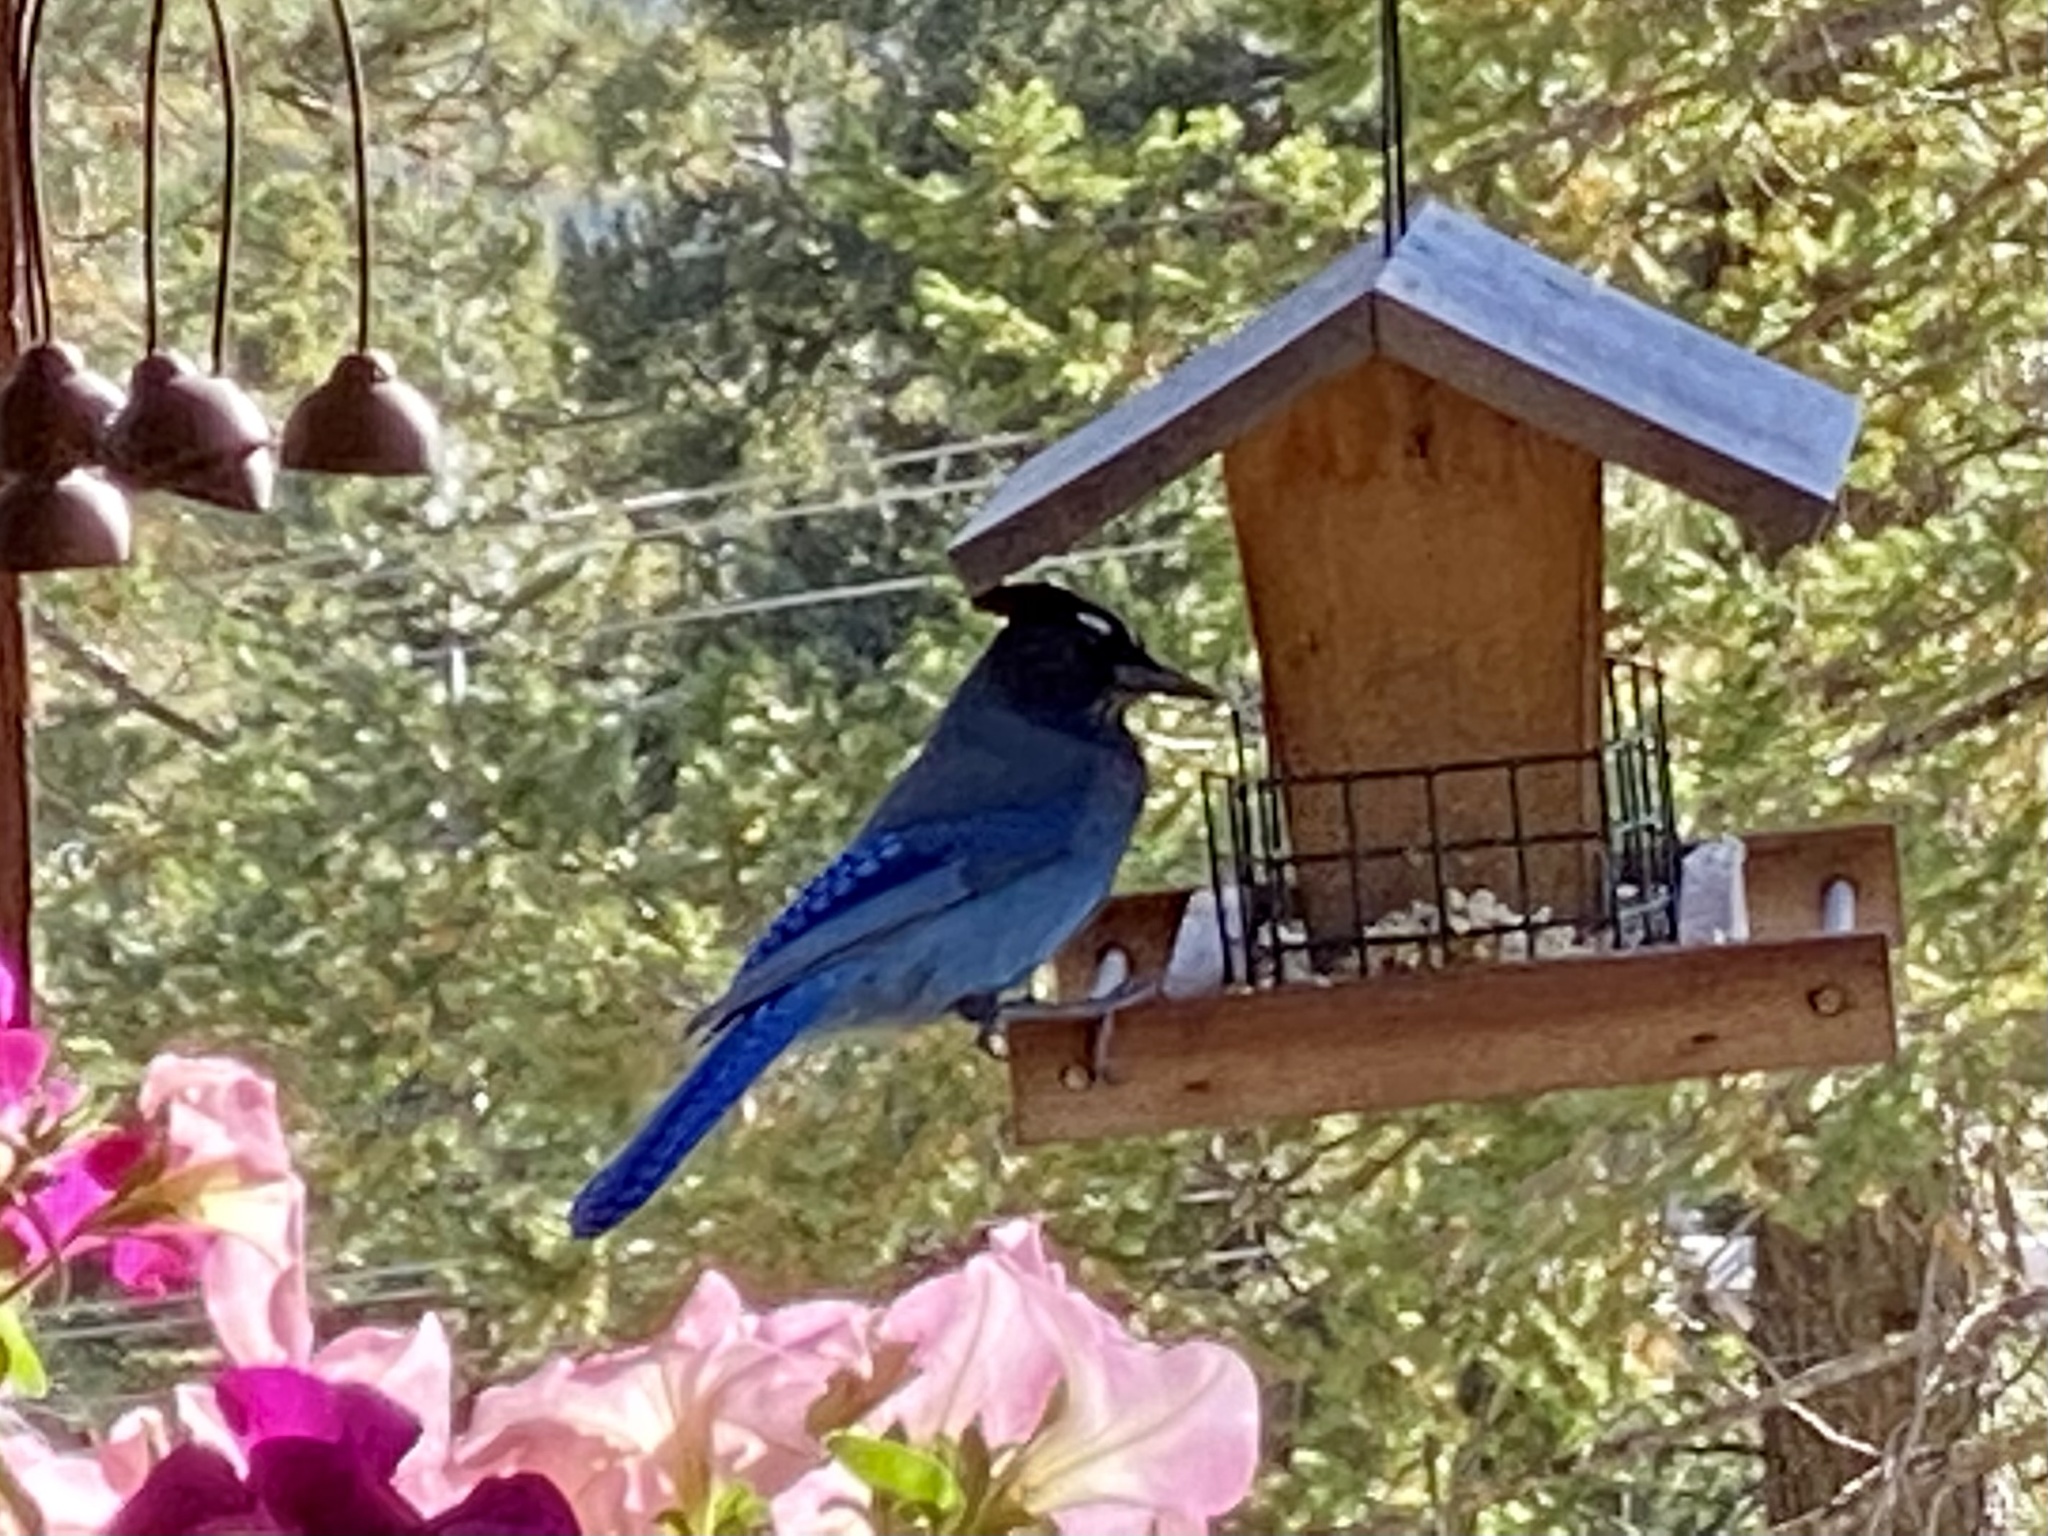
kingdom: Animalia
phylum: Chordata
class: Aves
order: Passeriformes
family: Corvidae
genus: Cyanocitta
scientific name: Cyanocitta stelleri
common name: Steller's jay
